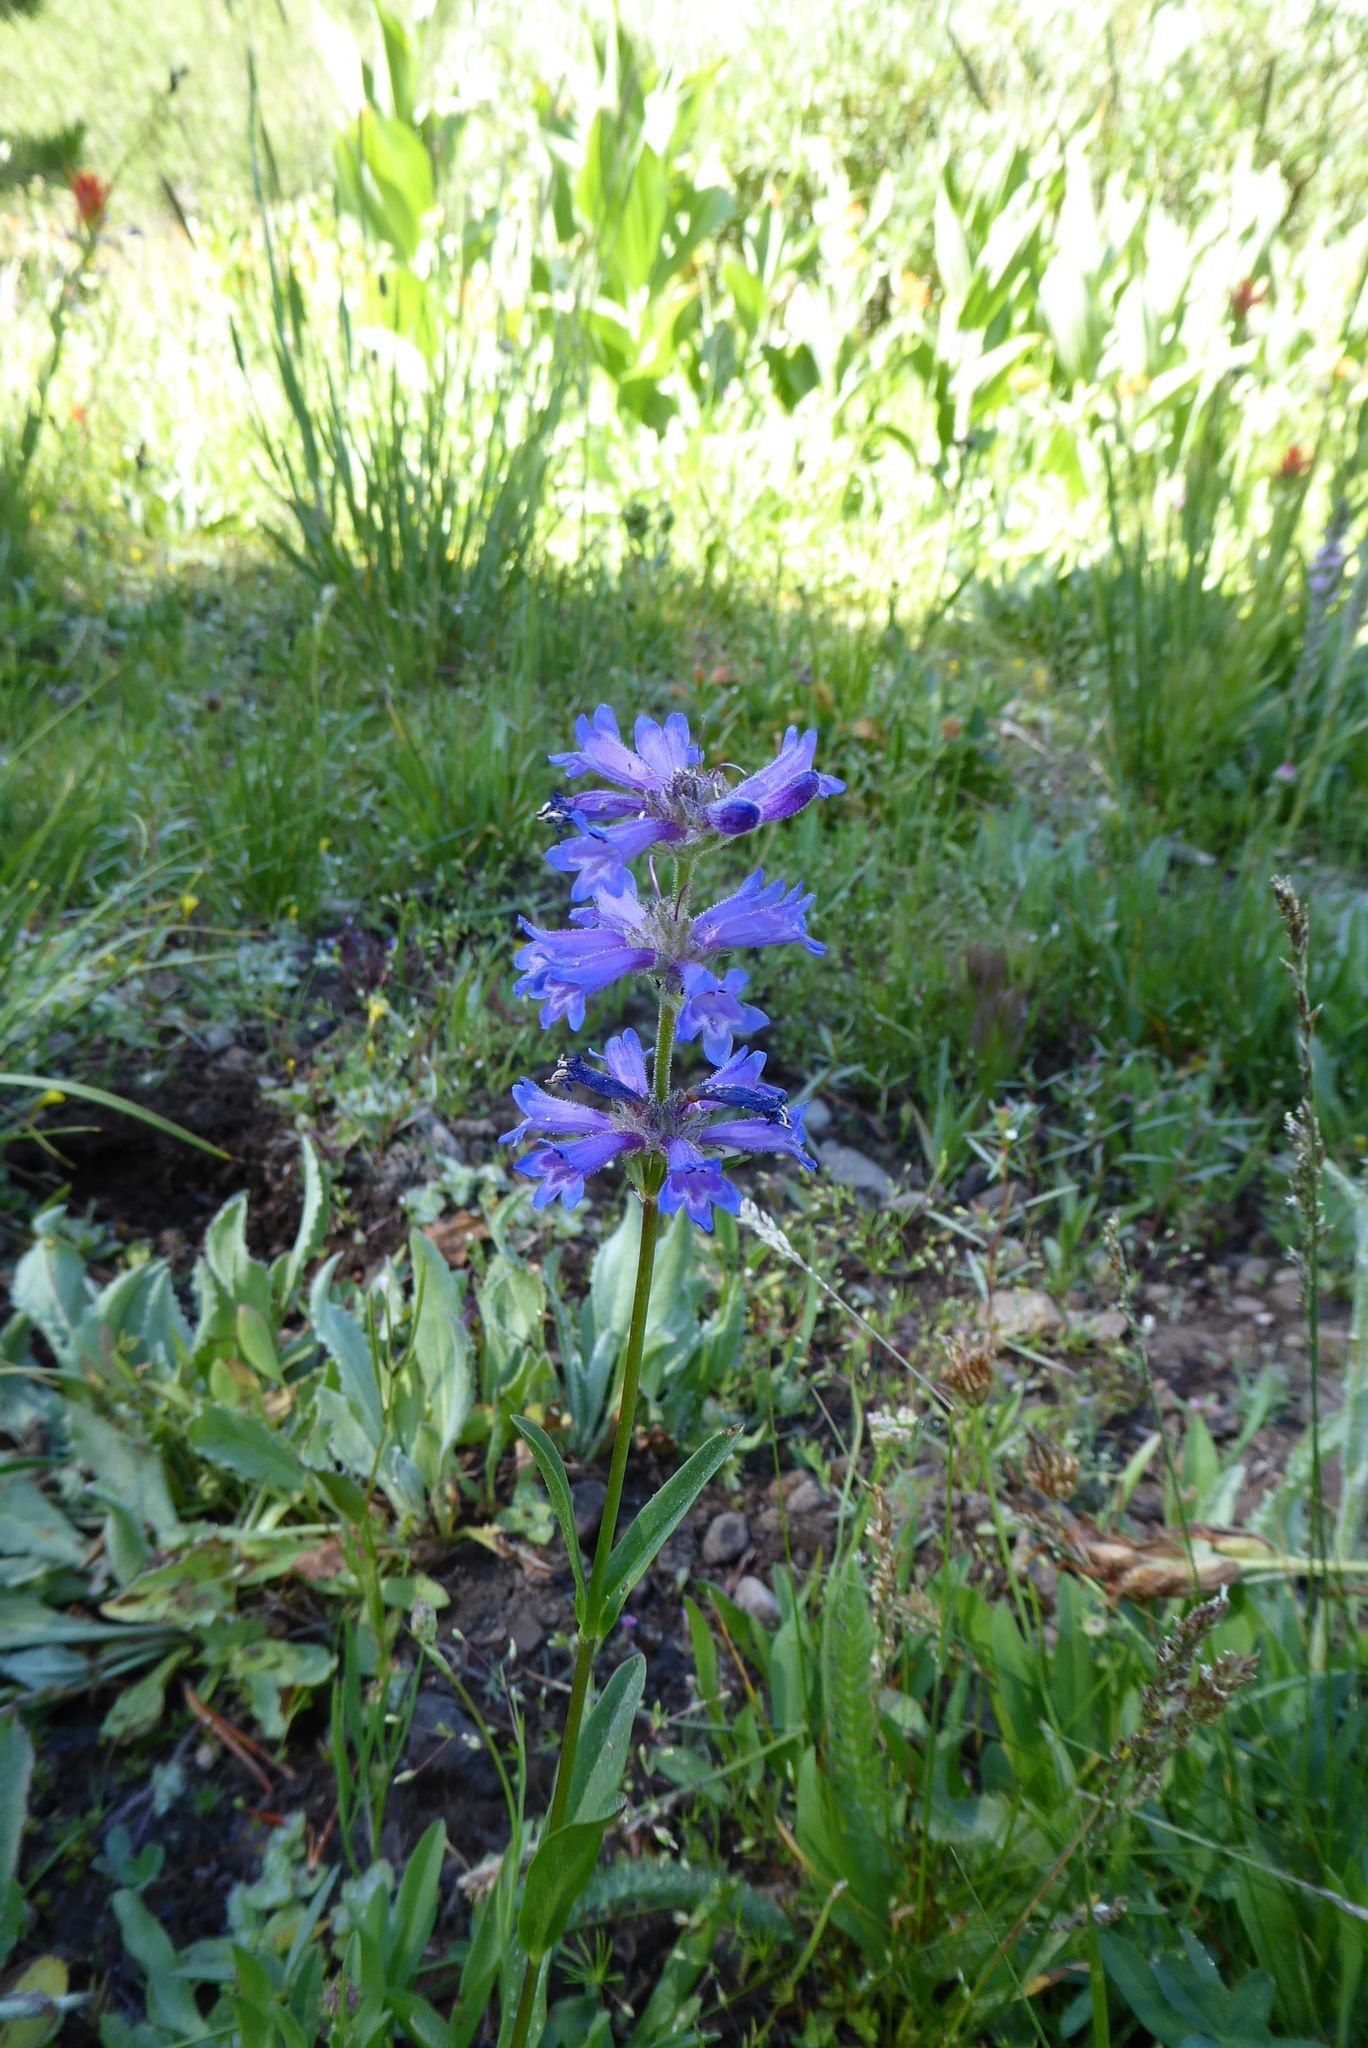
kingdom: Plantae
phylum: Tracheophyta
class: Magnoliopsida
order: Lamiales
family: Plantaginaceae
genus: Penstemon
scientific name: Penstemon rydbergii
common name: Rydberg's beardtongue
